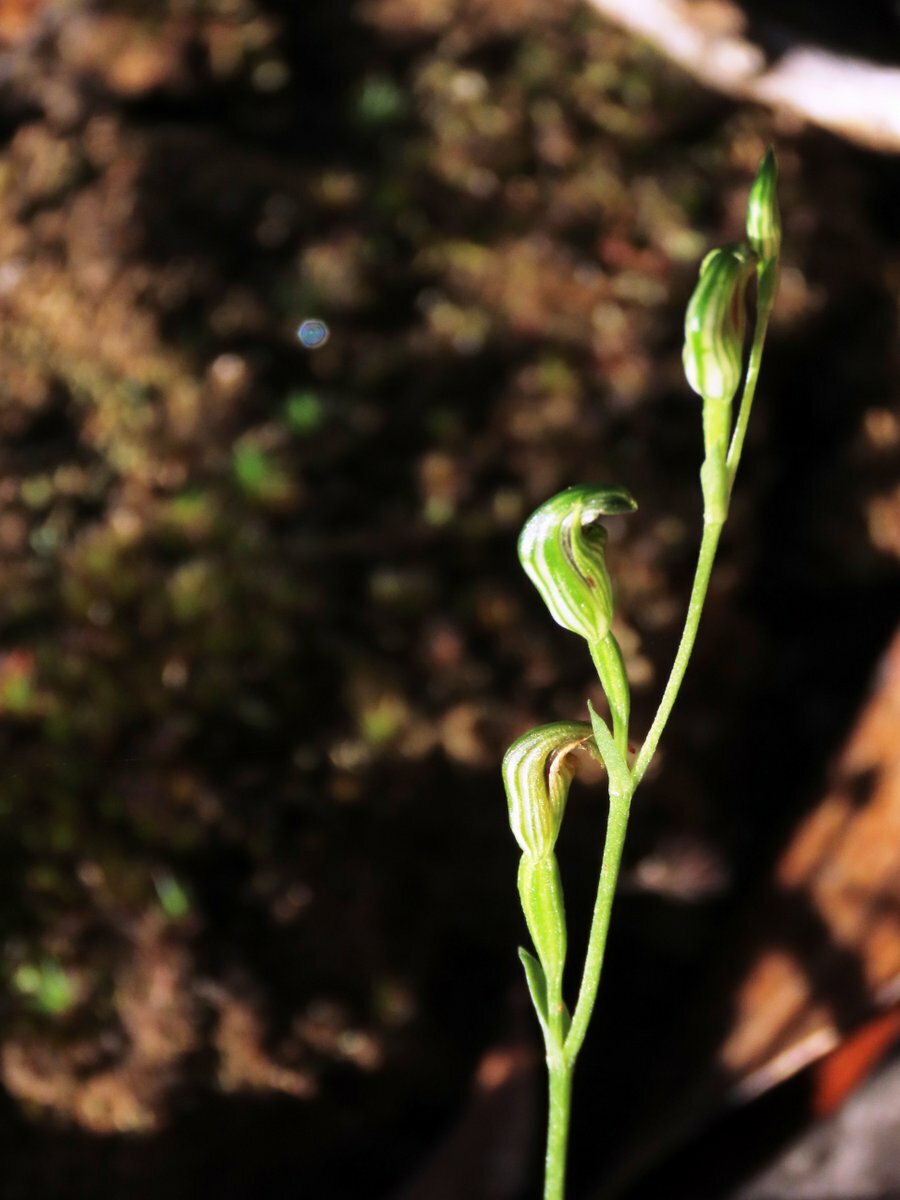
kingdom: Plantae
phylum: Tracheophyta
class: Liliopsida
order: Asparagales
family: Orchidaceae
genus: Pterostylis
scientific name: Pterostylis parviflora
